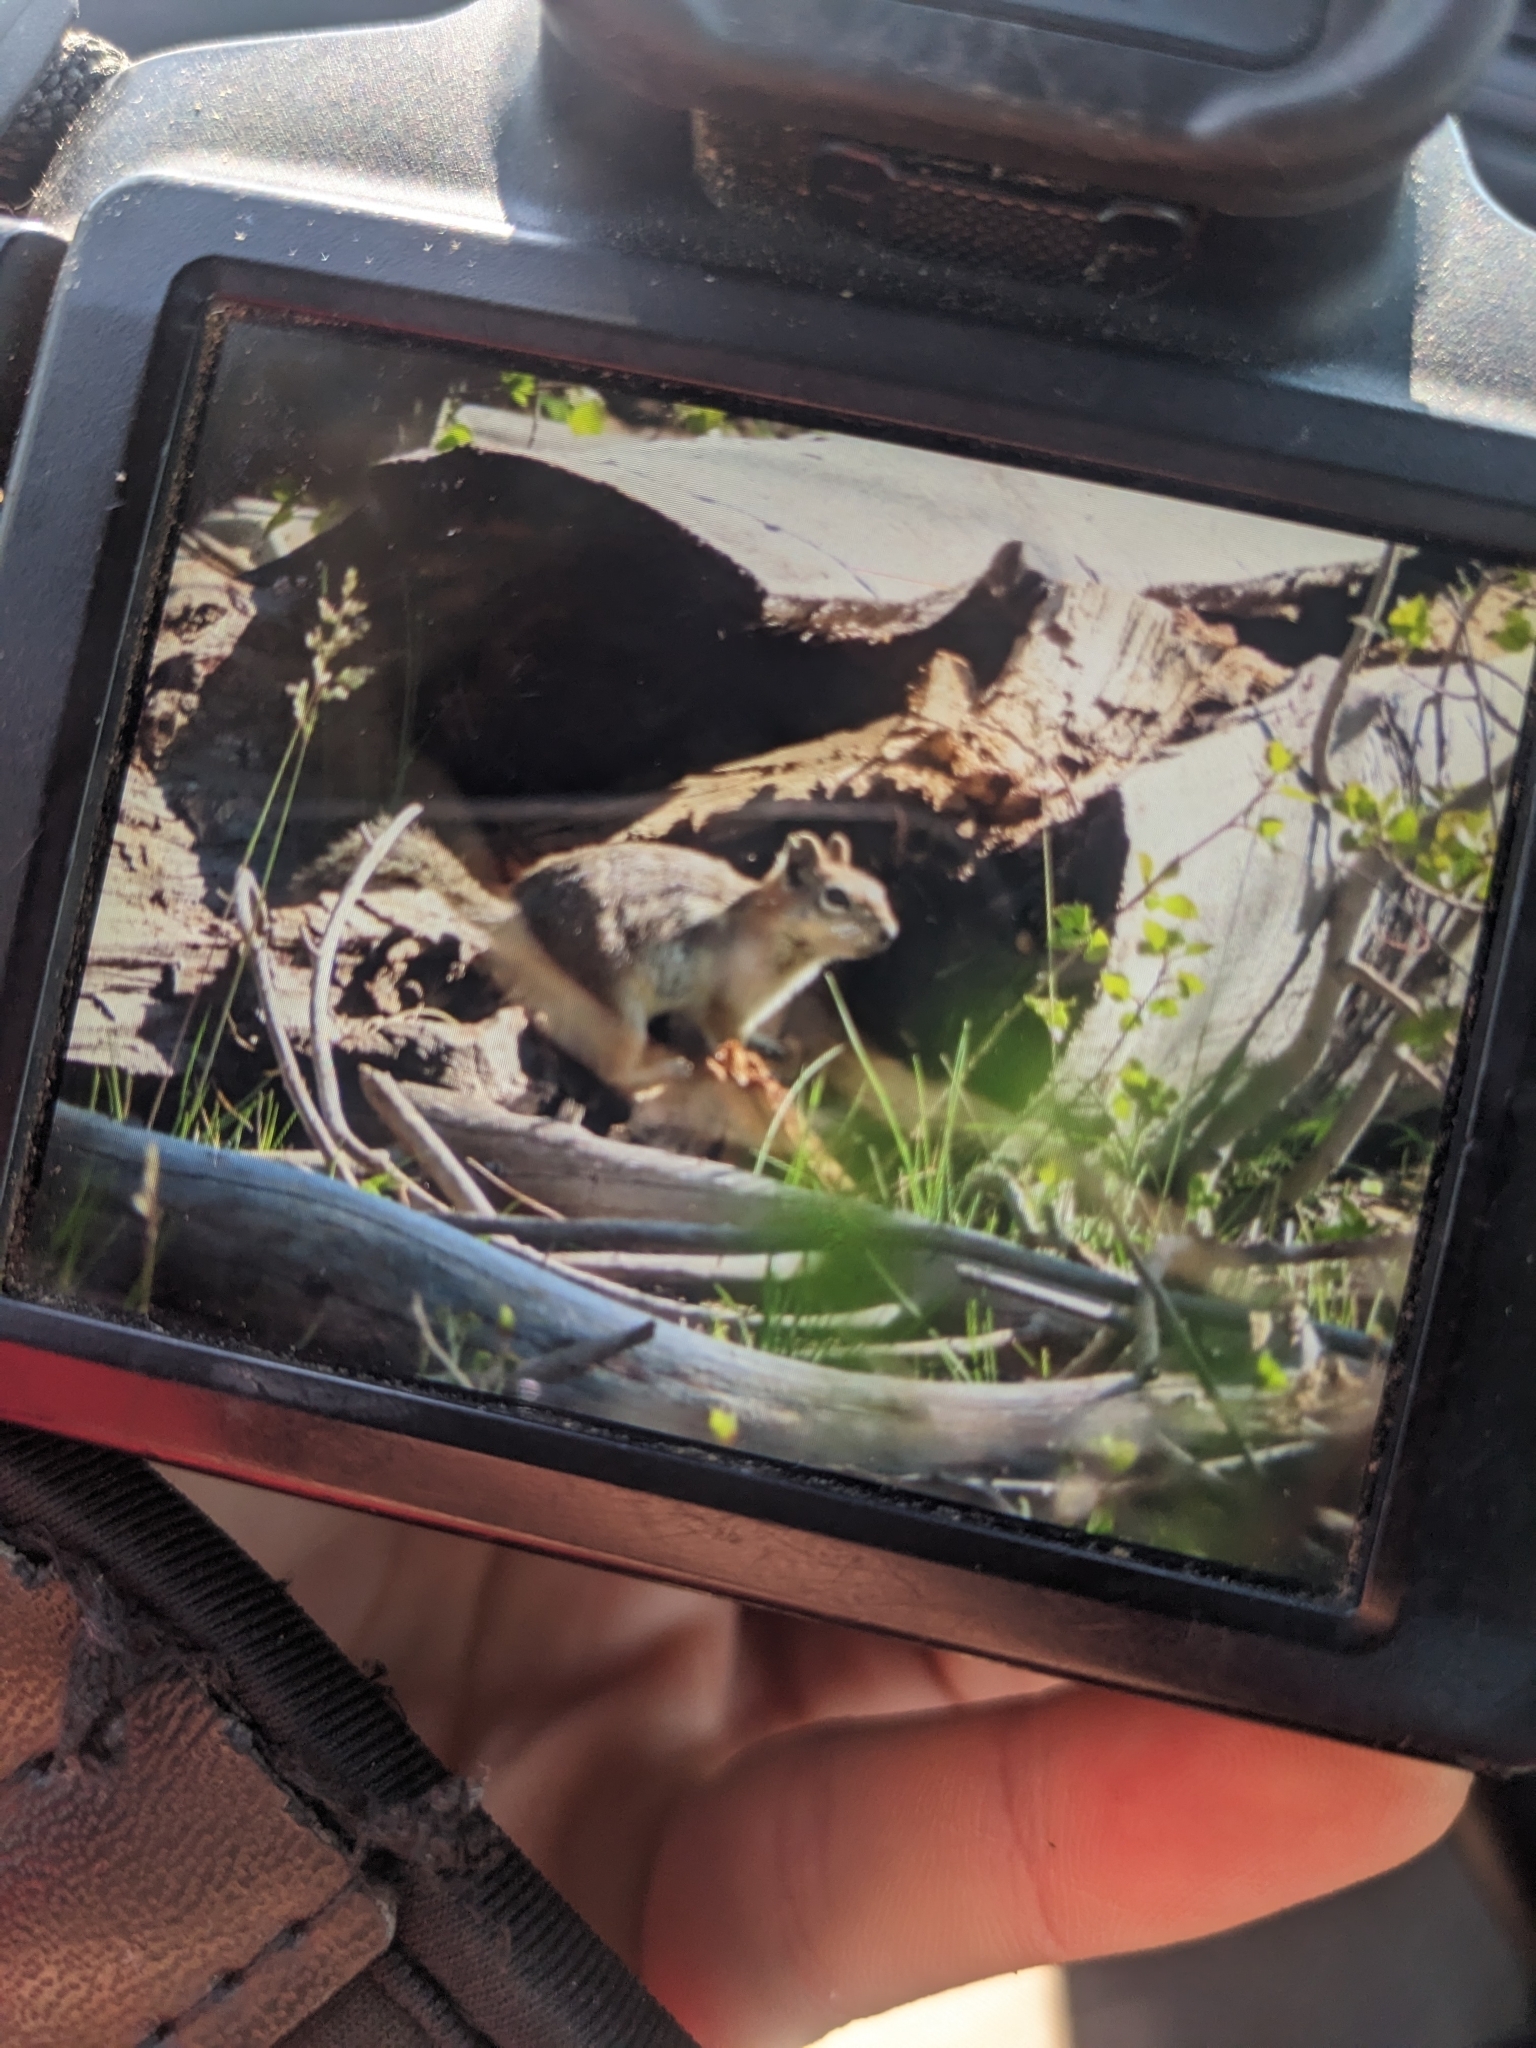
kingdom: Animalia
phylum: Chordata
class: Mammalia
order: Rodentia
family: Sciuridae
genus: Callospermophilus
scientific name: Callospermophilus lateralis
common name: Golden-mantled ground squirrel
